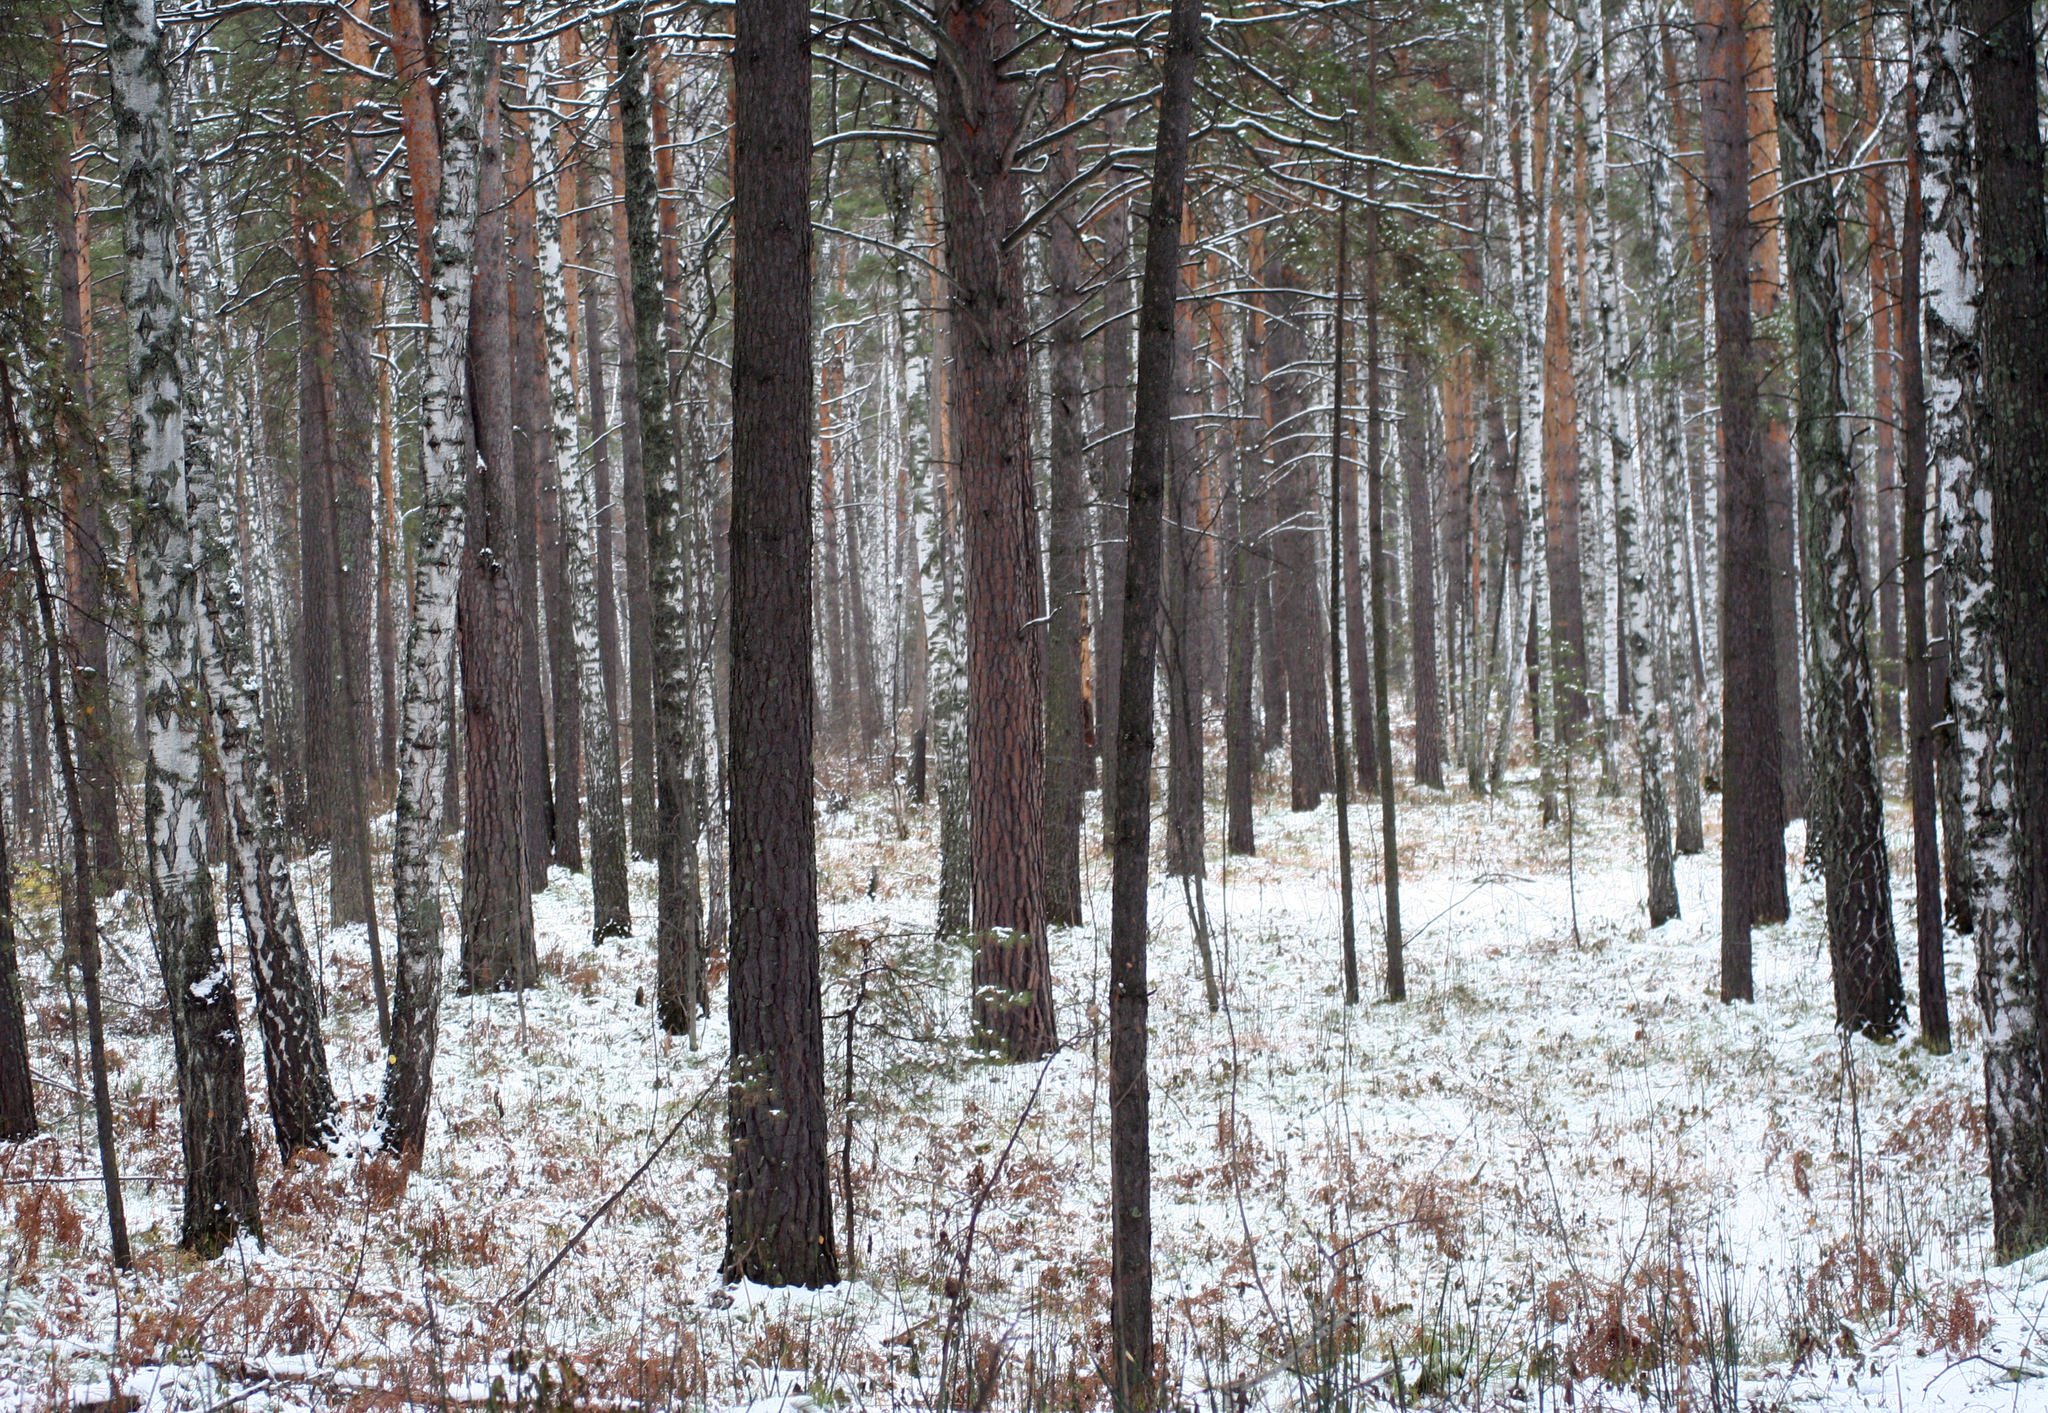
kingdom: Plantae
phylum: Tracheophyta
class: Pinopsida
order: Pinales
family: Pinaceae
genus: Pinus
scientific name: Pinus sylvestris
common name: Scots pine
